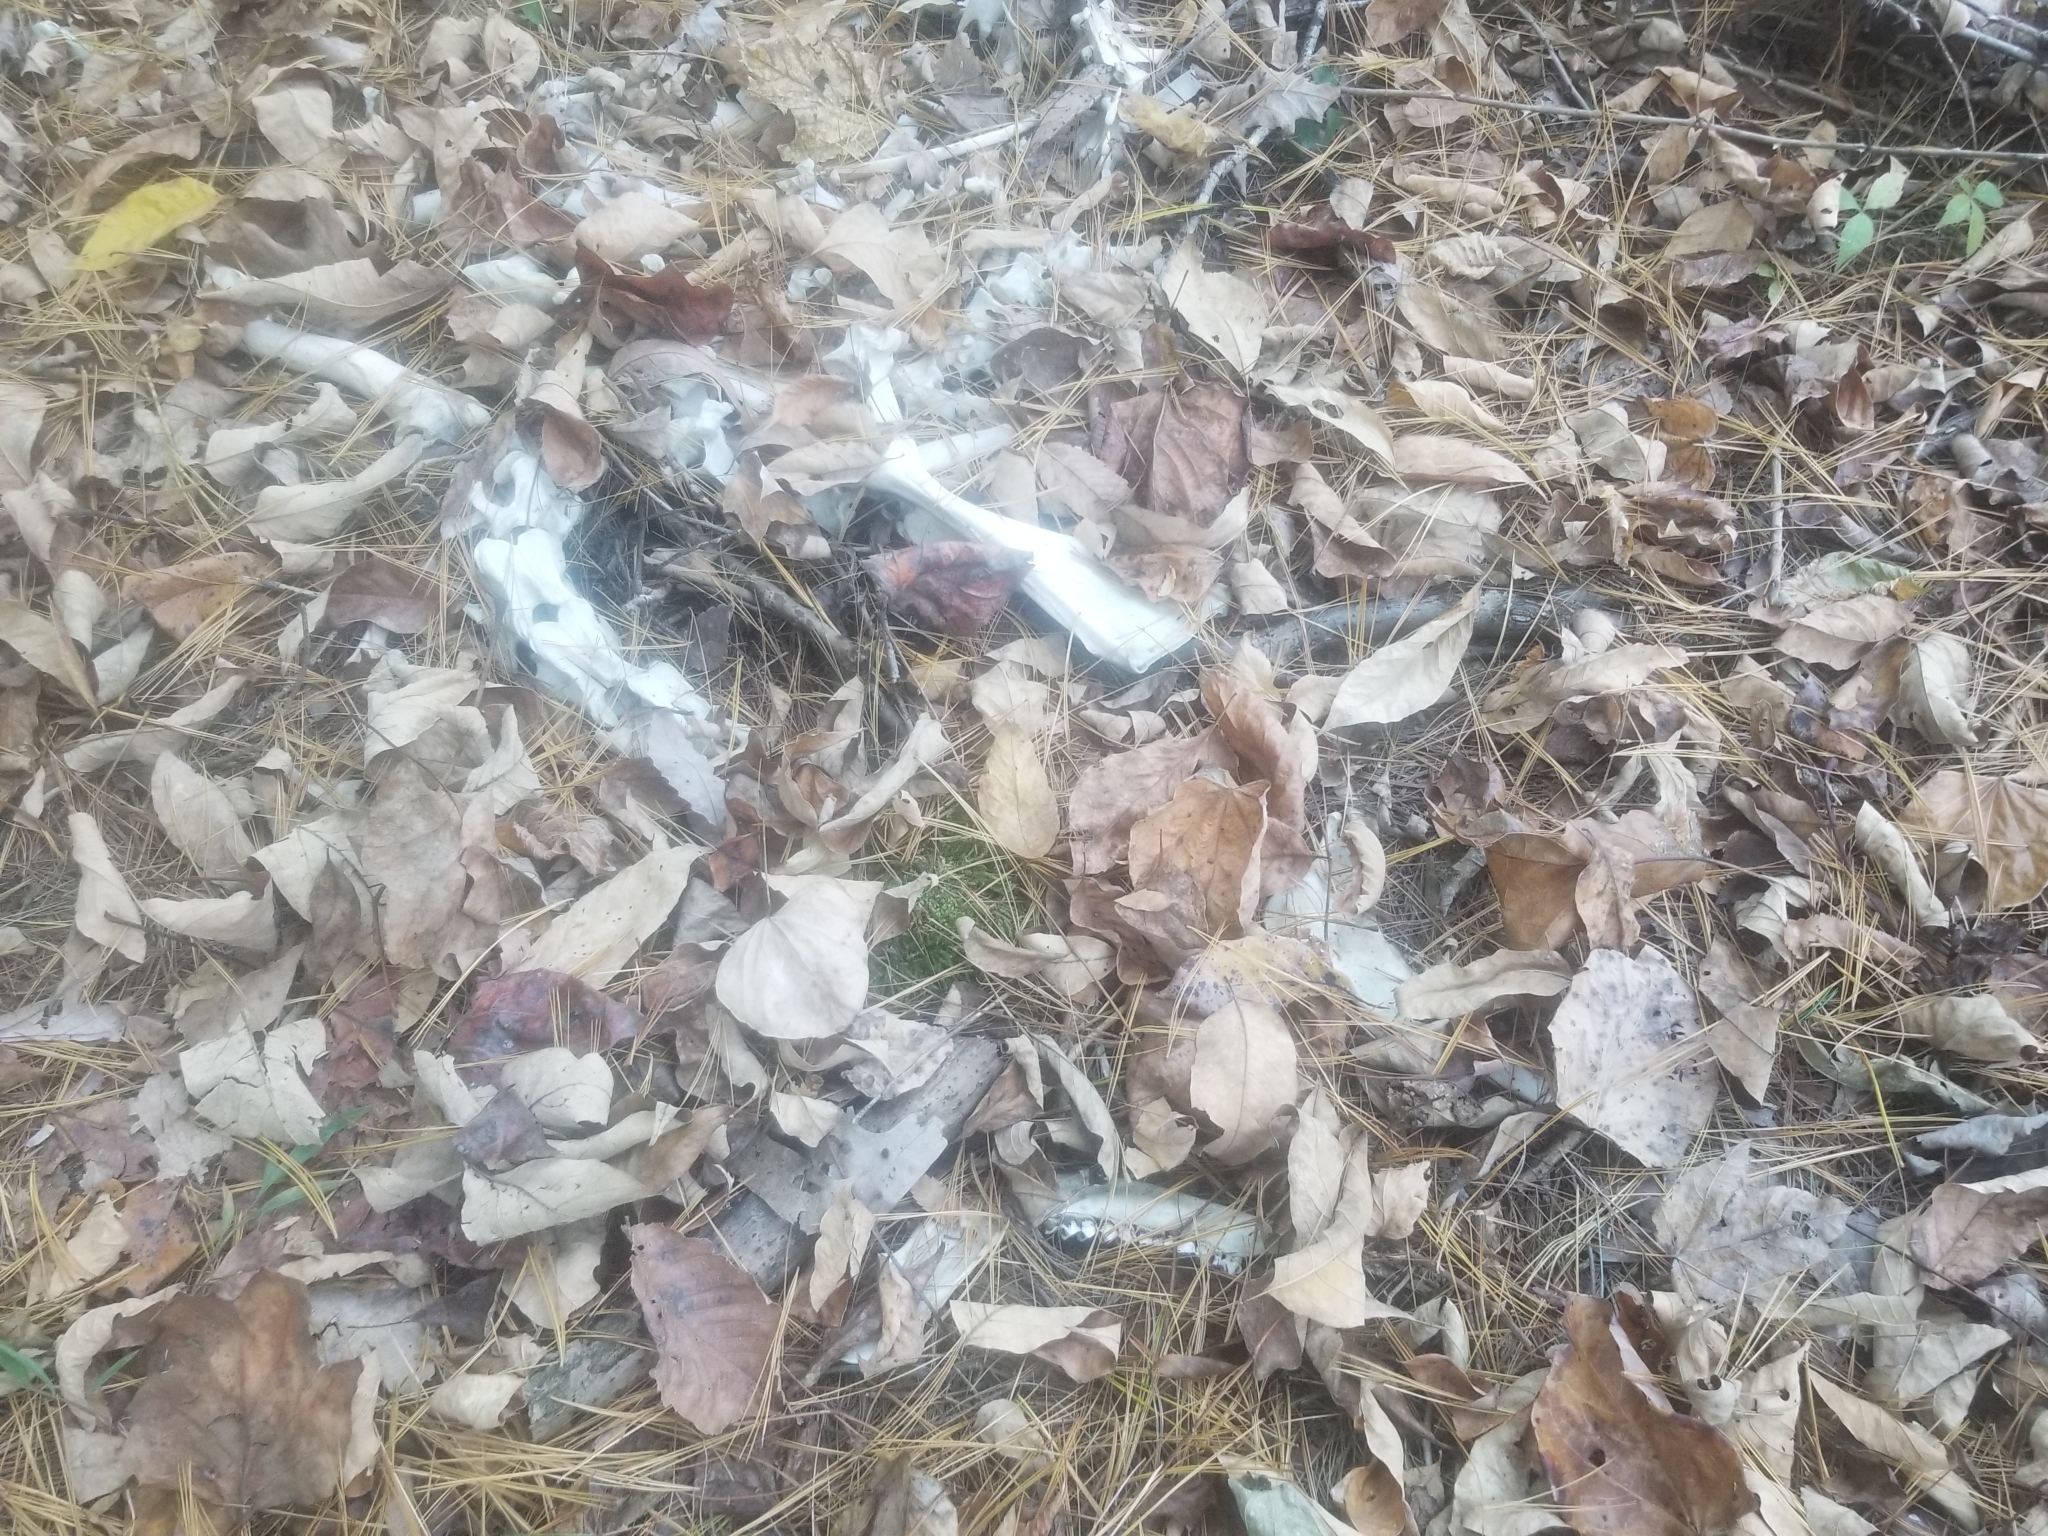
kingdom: Animalia
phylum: Chordata
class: Mammalia
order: Artiodactyla
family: Cervidae
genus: Odocoileus
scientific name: Odocoileus virginianus
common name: White-tailed deer
